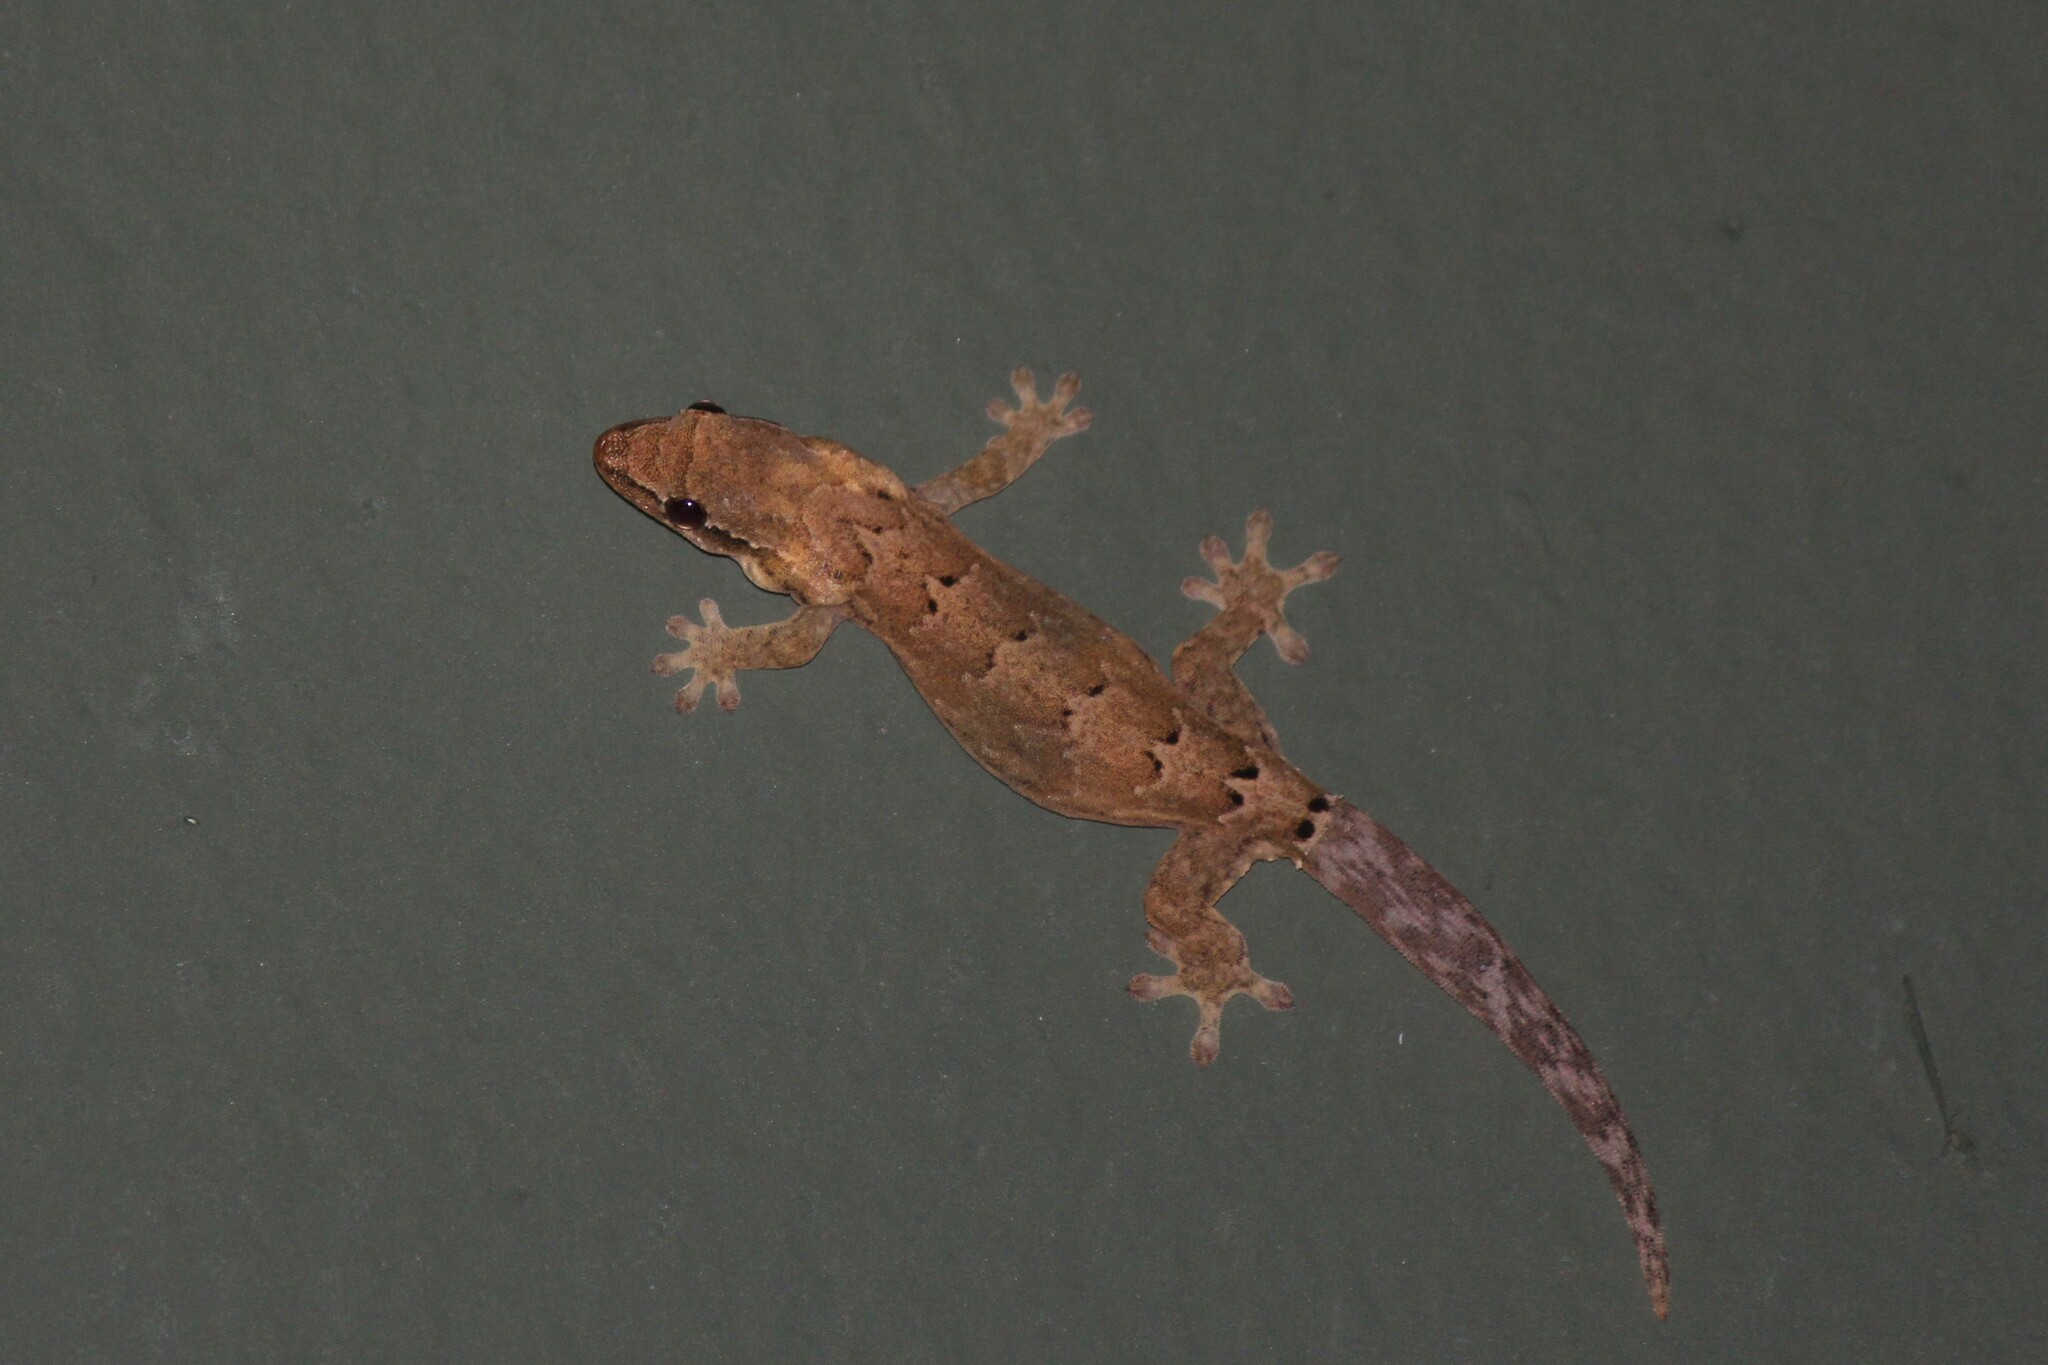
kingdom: Animalia
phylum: Chordata
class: Squamata
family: Gekkonidae
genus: Lepidodactylus
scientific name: Lepidodactylus lugubris
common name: Mourning gecko
